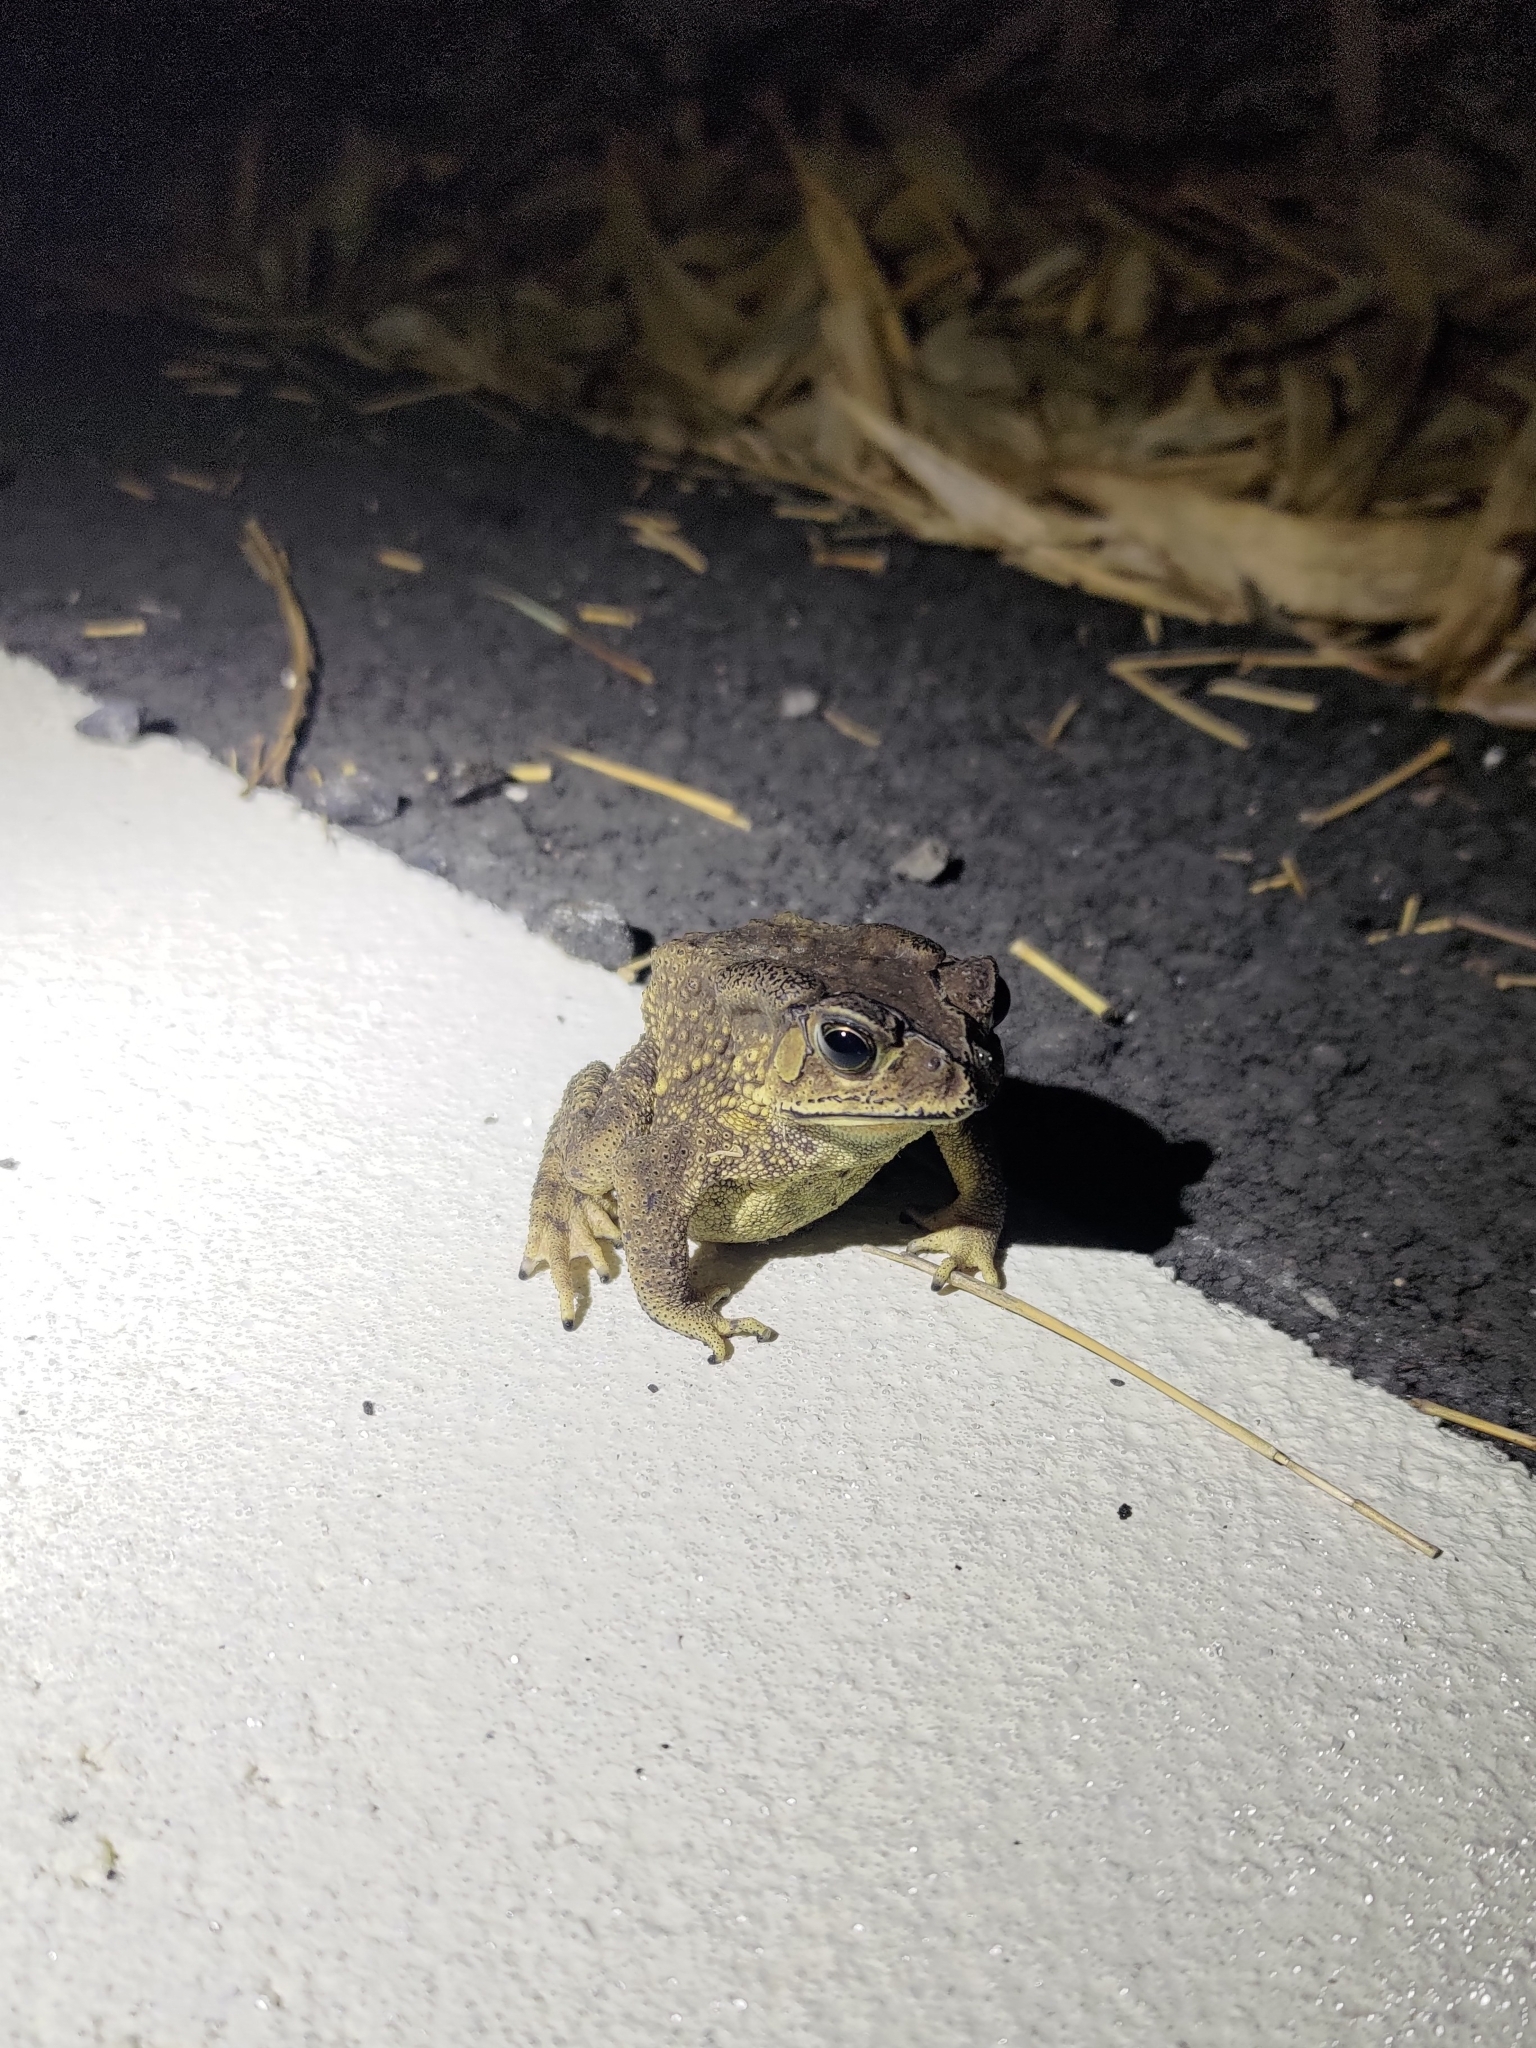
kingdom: Animalia
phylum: Chordata
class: Amphibia
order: Anura
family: Bufonidae
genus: Duttaphrynus
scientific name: Duttaphrynus melanostictus
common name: Common sunda toad
